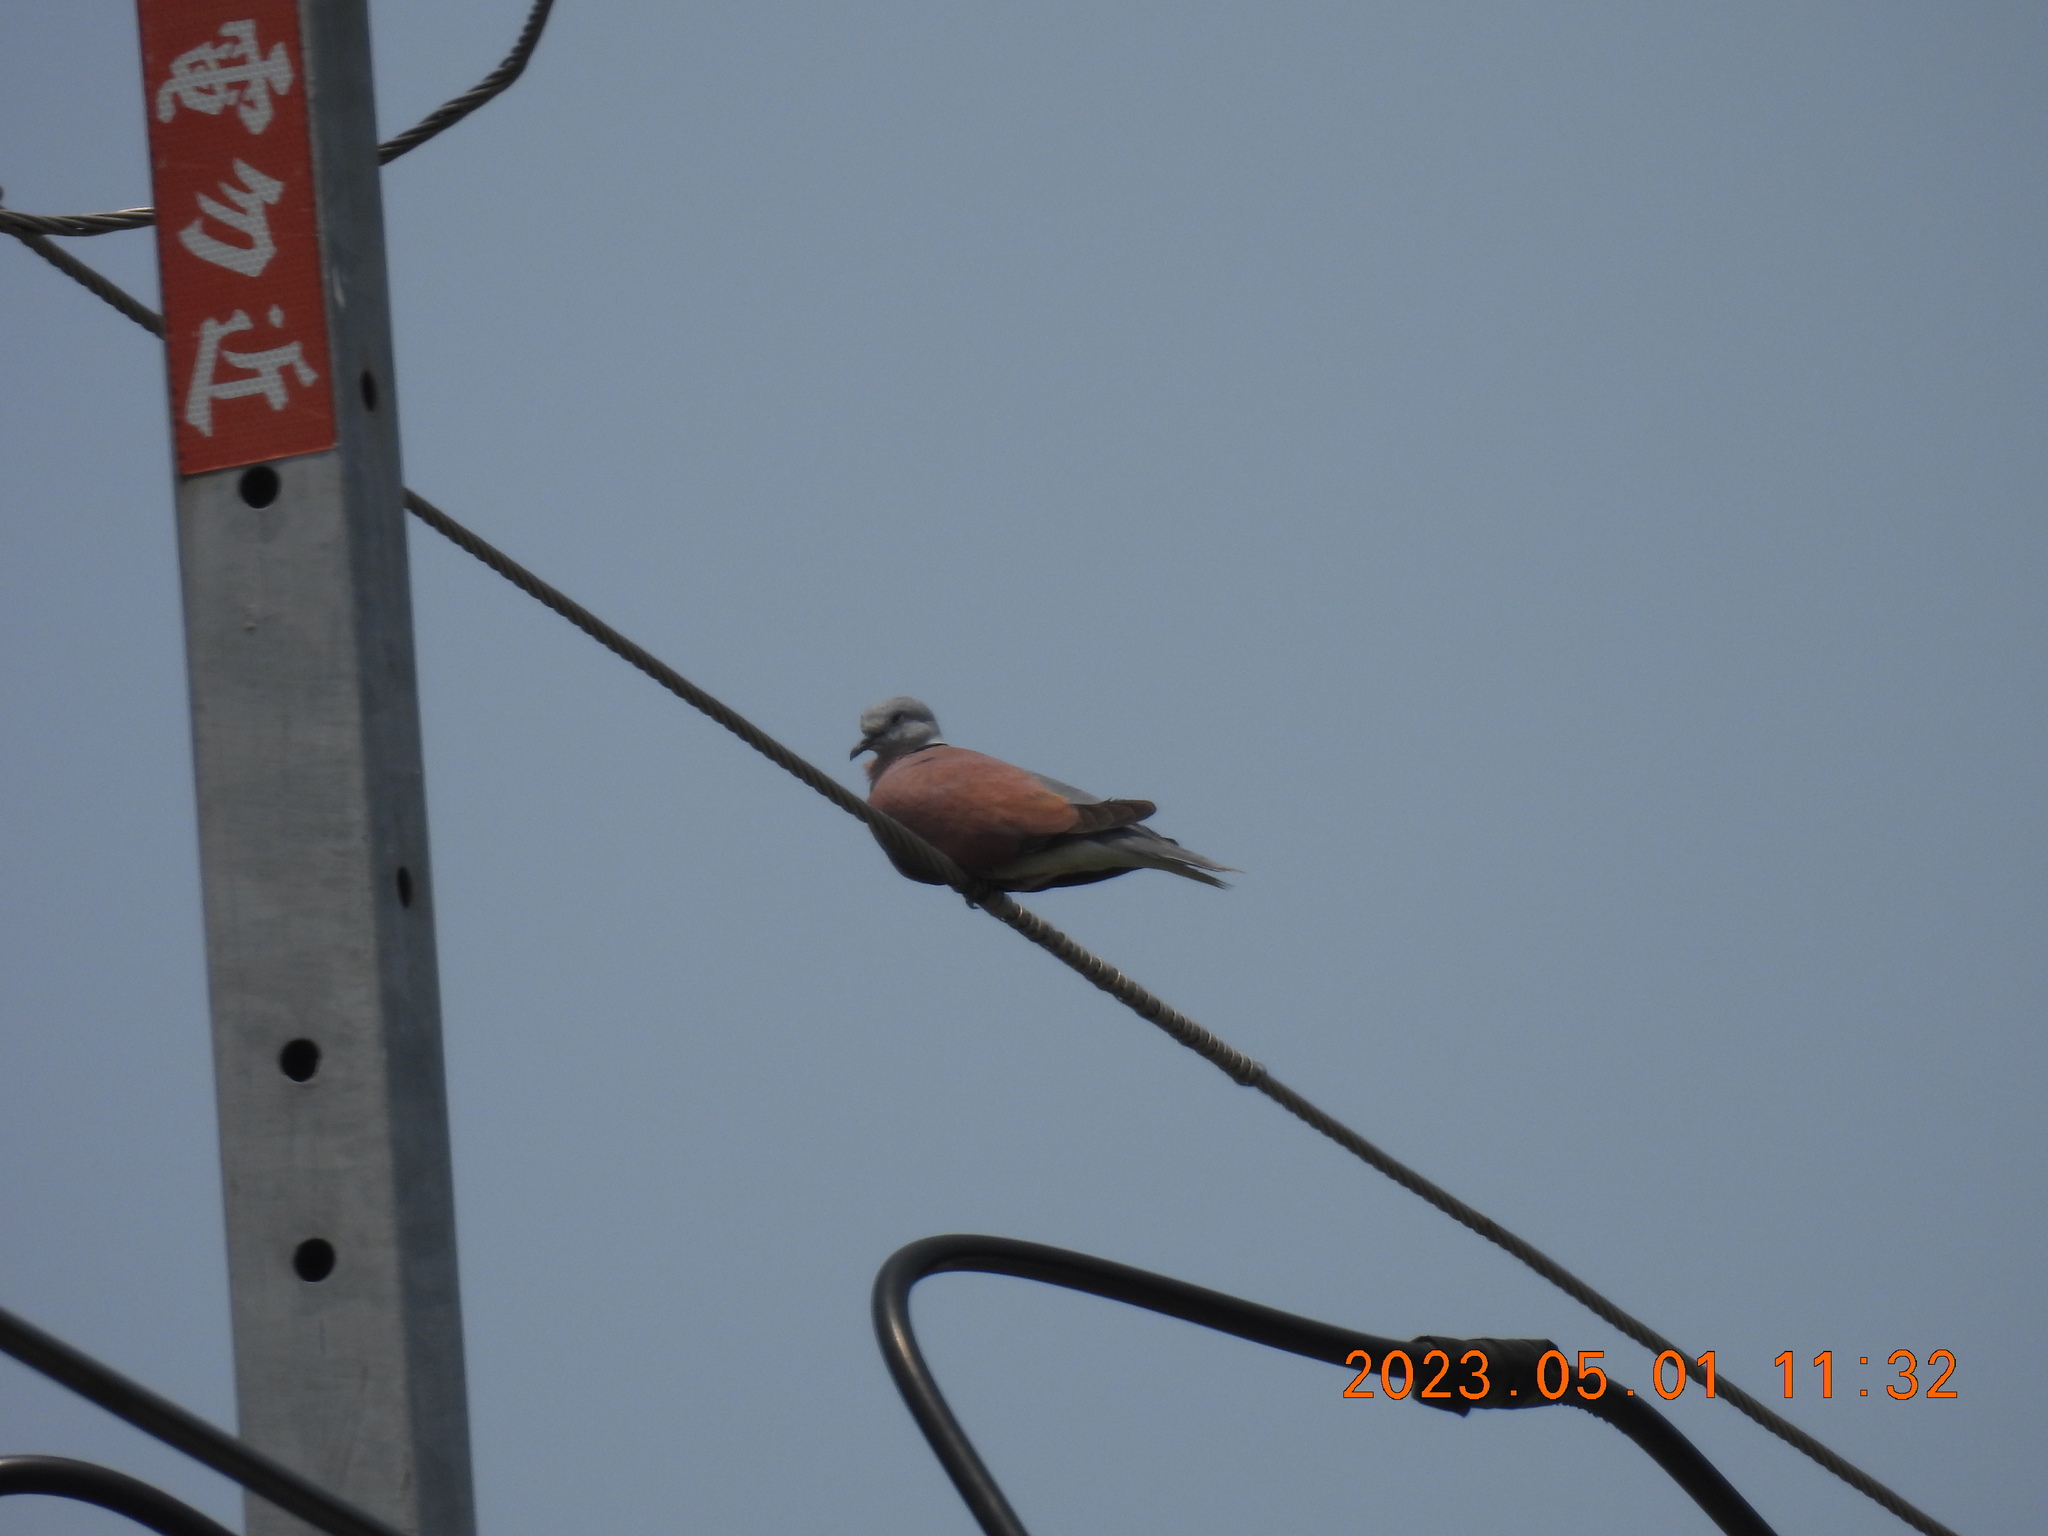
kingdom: Animalia
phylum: Chordata
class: Aves
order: Columbiformes
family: Columbidae
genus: Streptopelia
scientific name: Streptopelia tranquebarica
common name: Red turtle dove
